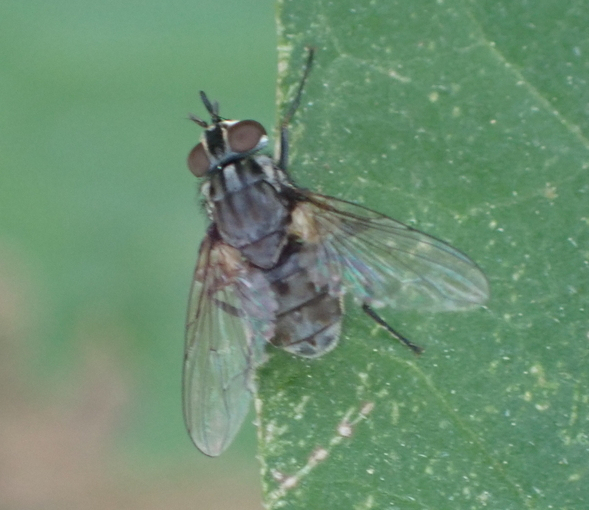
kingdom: Animalia
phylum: Arthropoda
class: Insecta
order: Diptera
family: Muscidae
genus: Stomoxys
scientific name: Stomoxys calcitrans
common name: Stable fly
